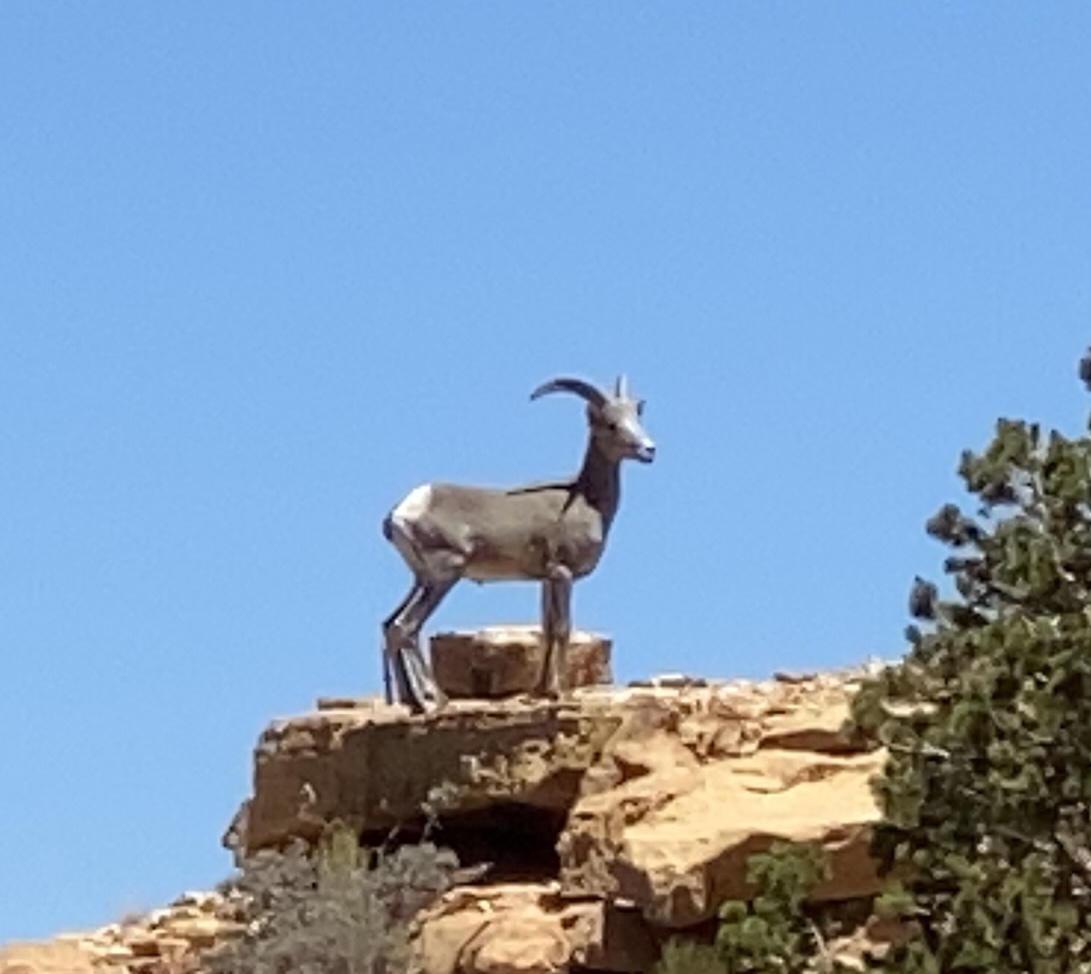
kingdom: Animalia
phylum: Chordata
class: Mammalia
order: Artiodactyla
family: Bovidae
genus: Ovis
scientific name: Ovis canadensis
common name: Bighorn sheep
